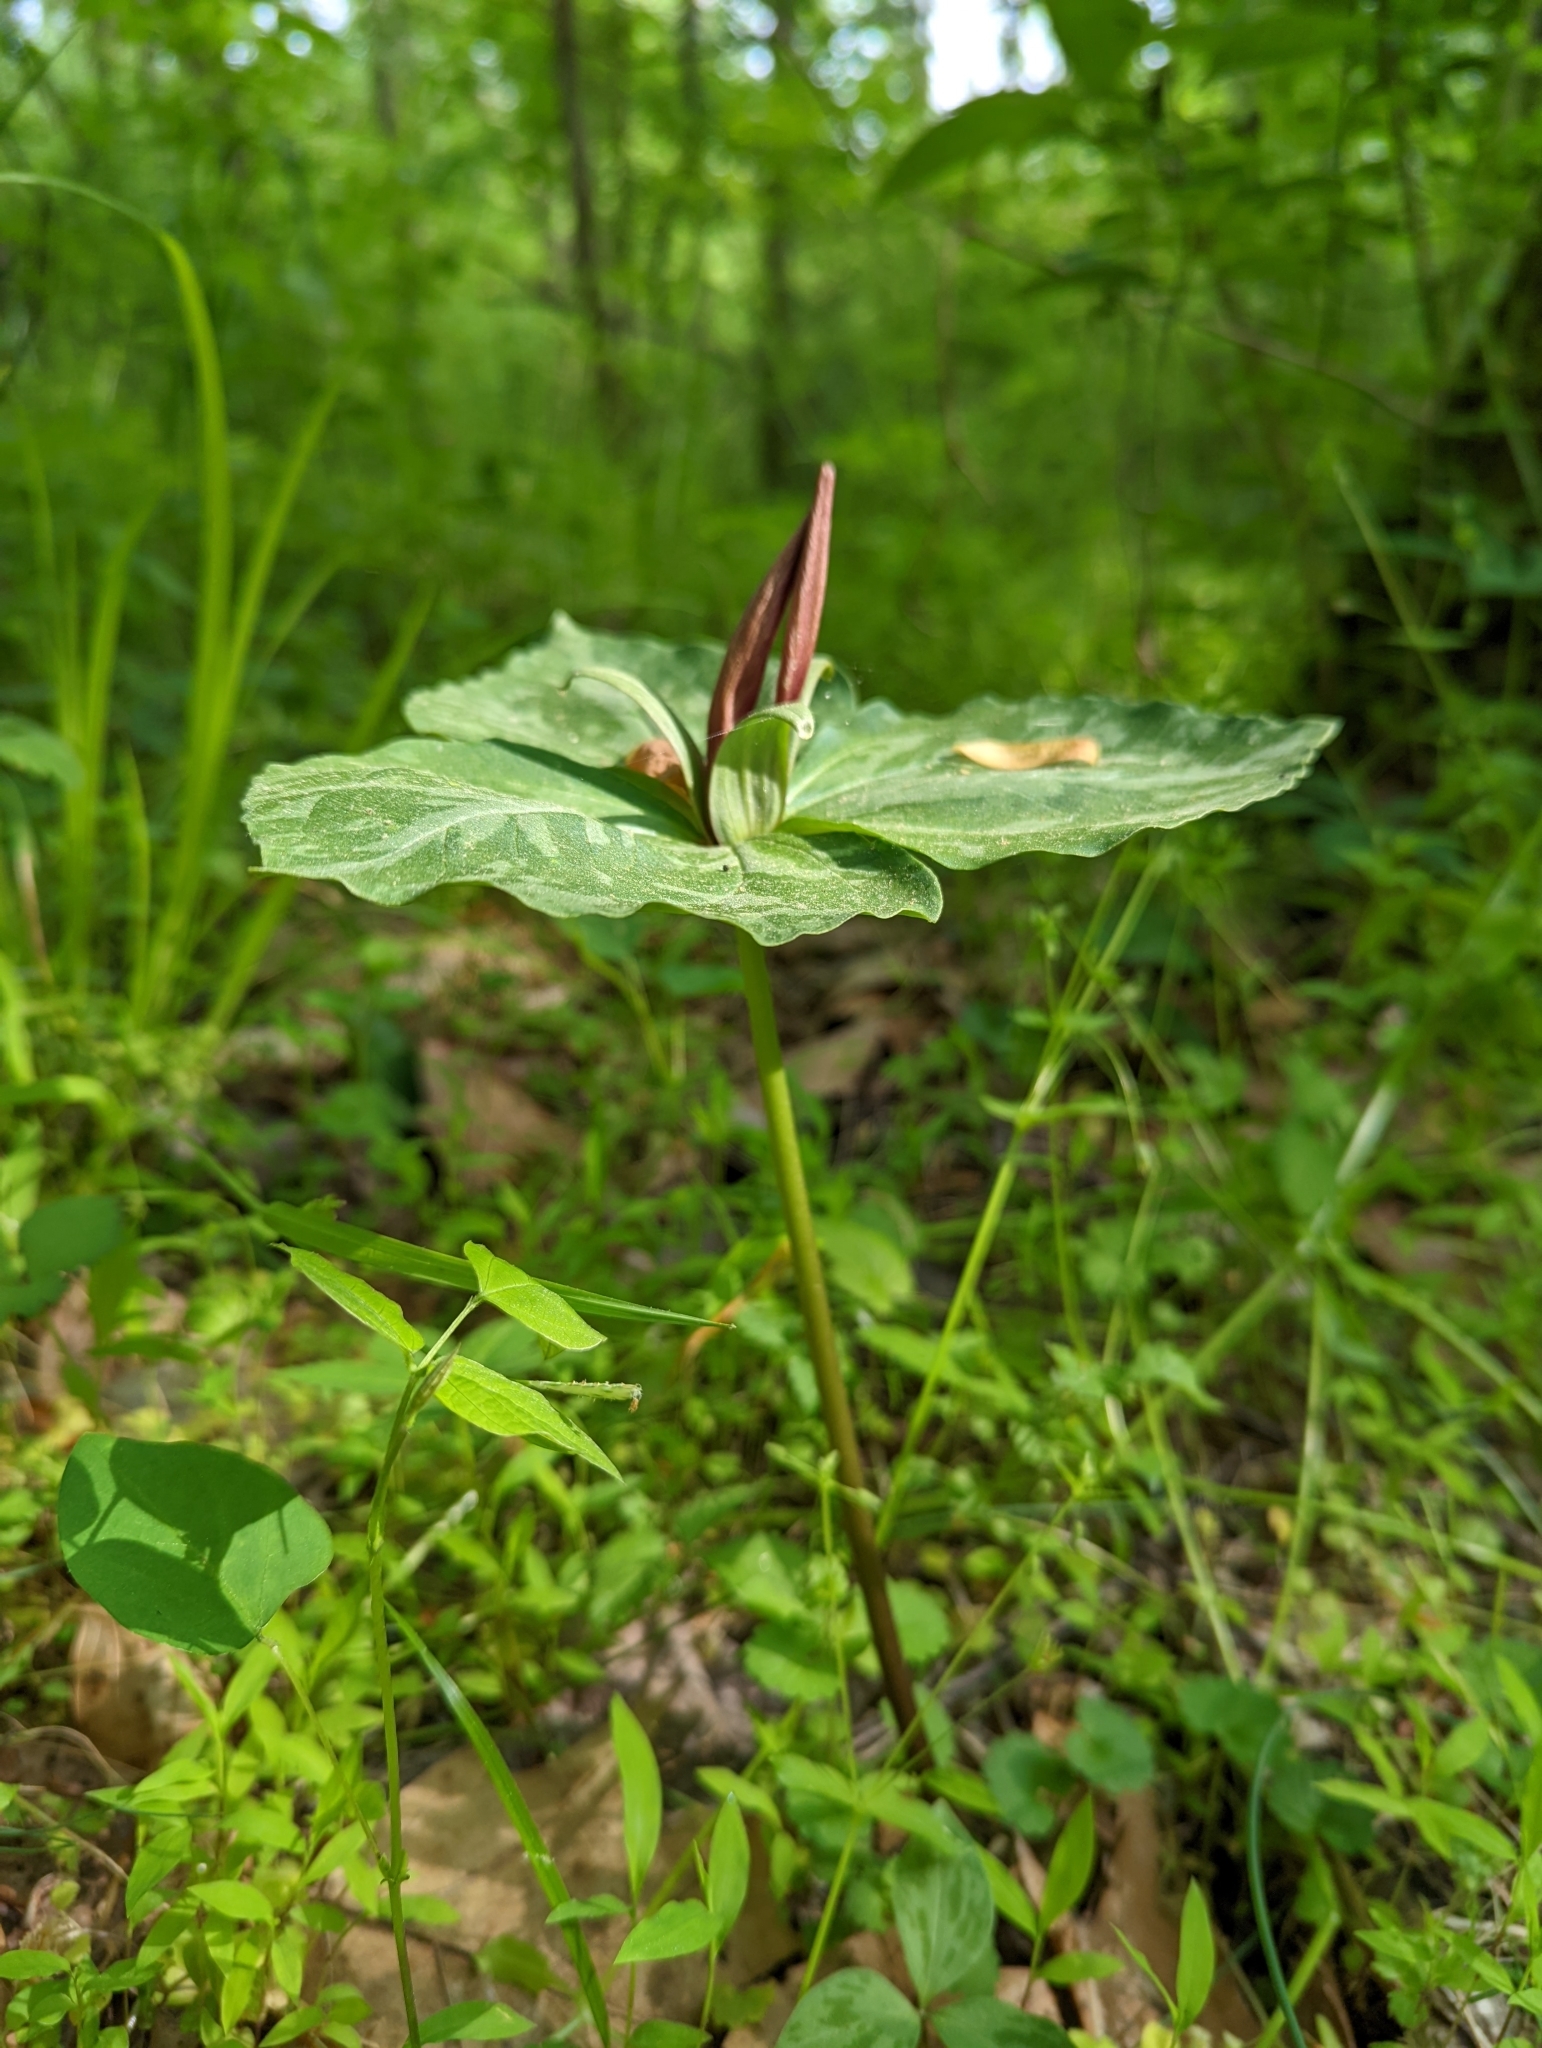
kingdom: Plantae
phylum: Tracheophyta
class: Liliopsida
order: Liliales
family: Melanthiaceae
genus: Trillium
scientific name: Trillium cuneatum
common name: Cuneate trillium
